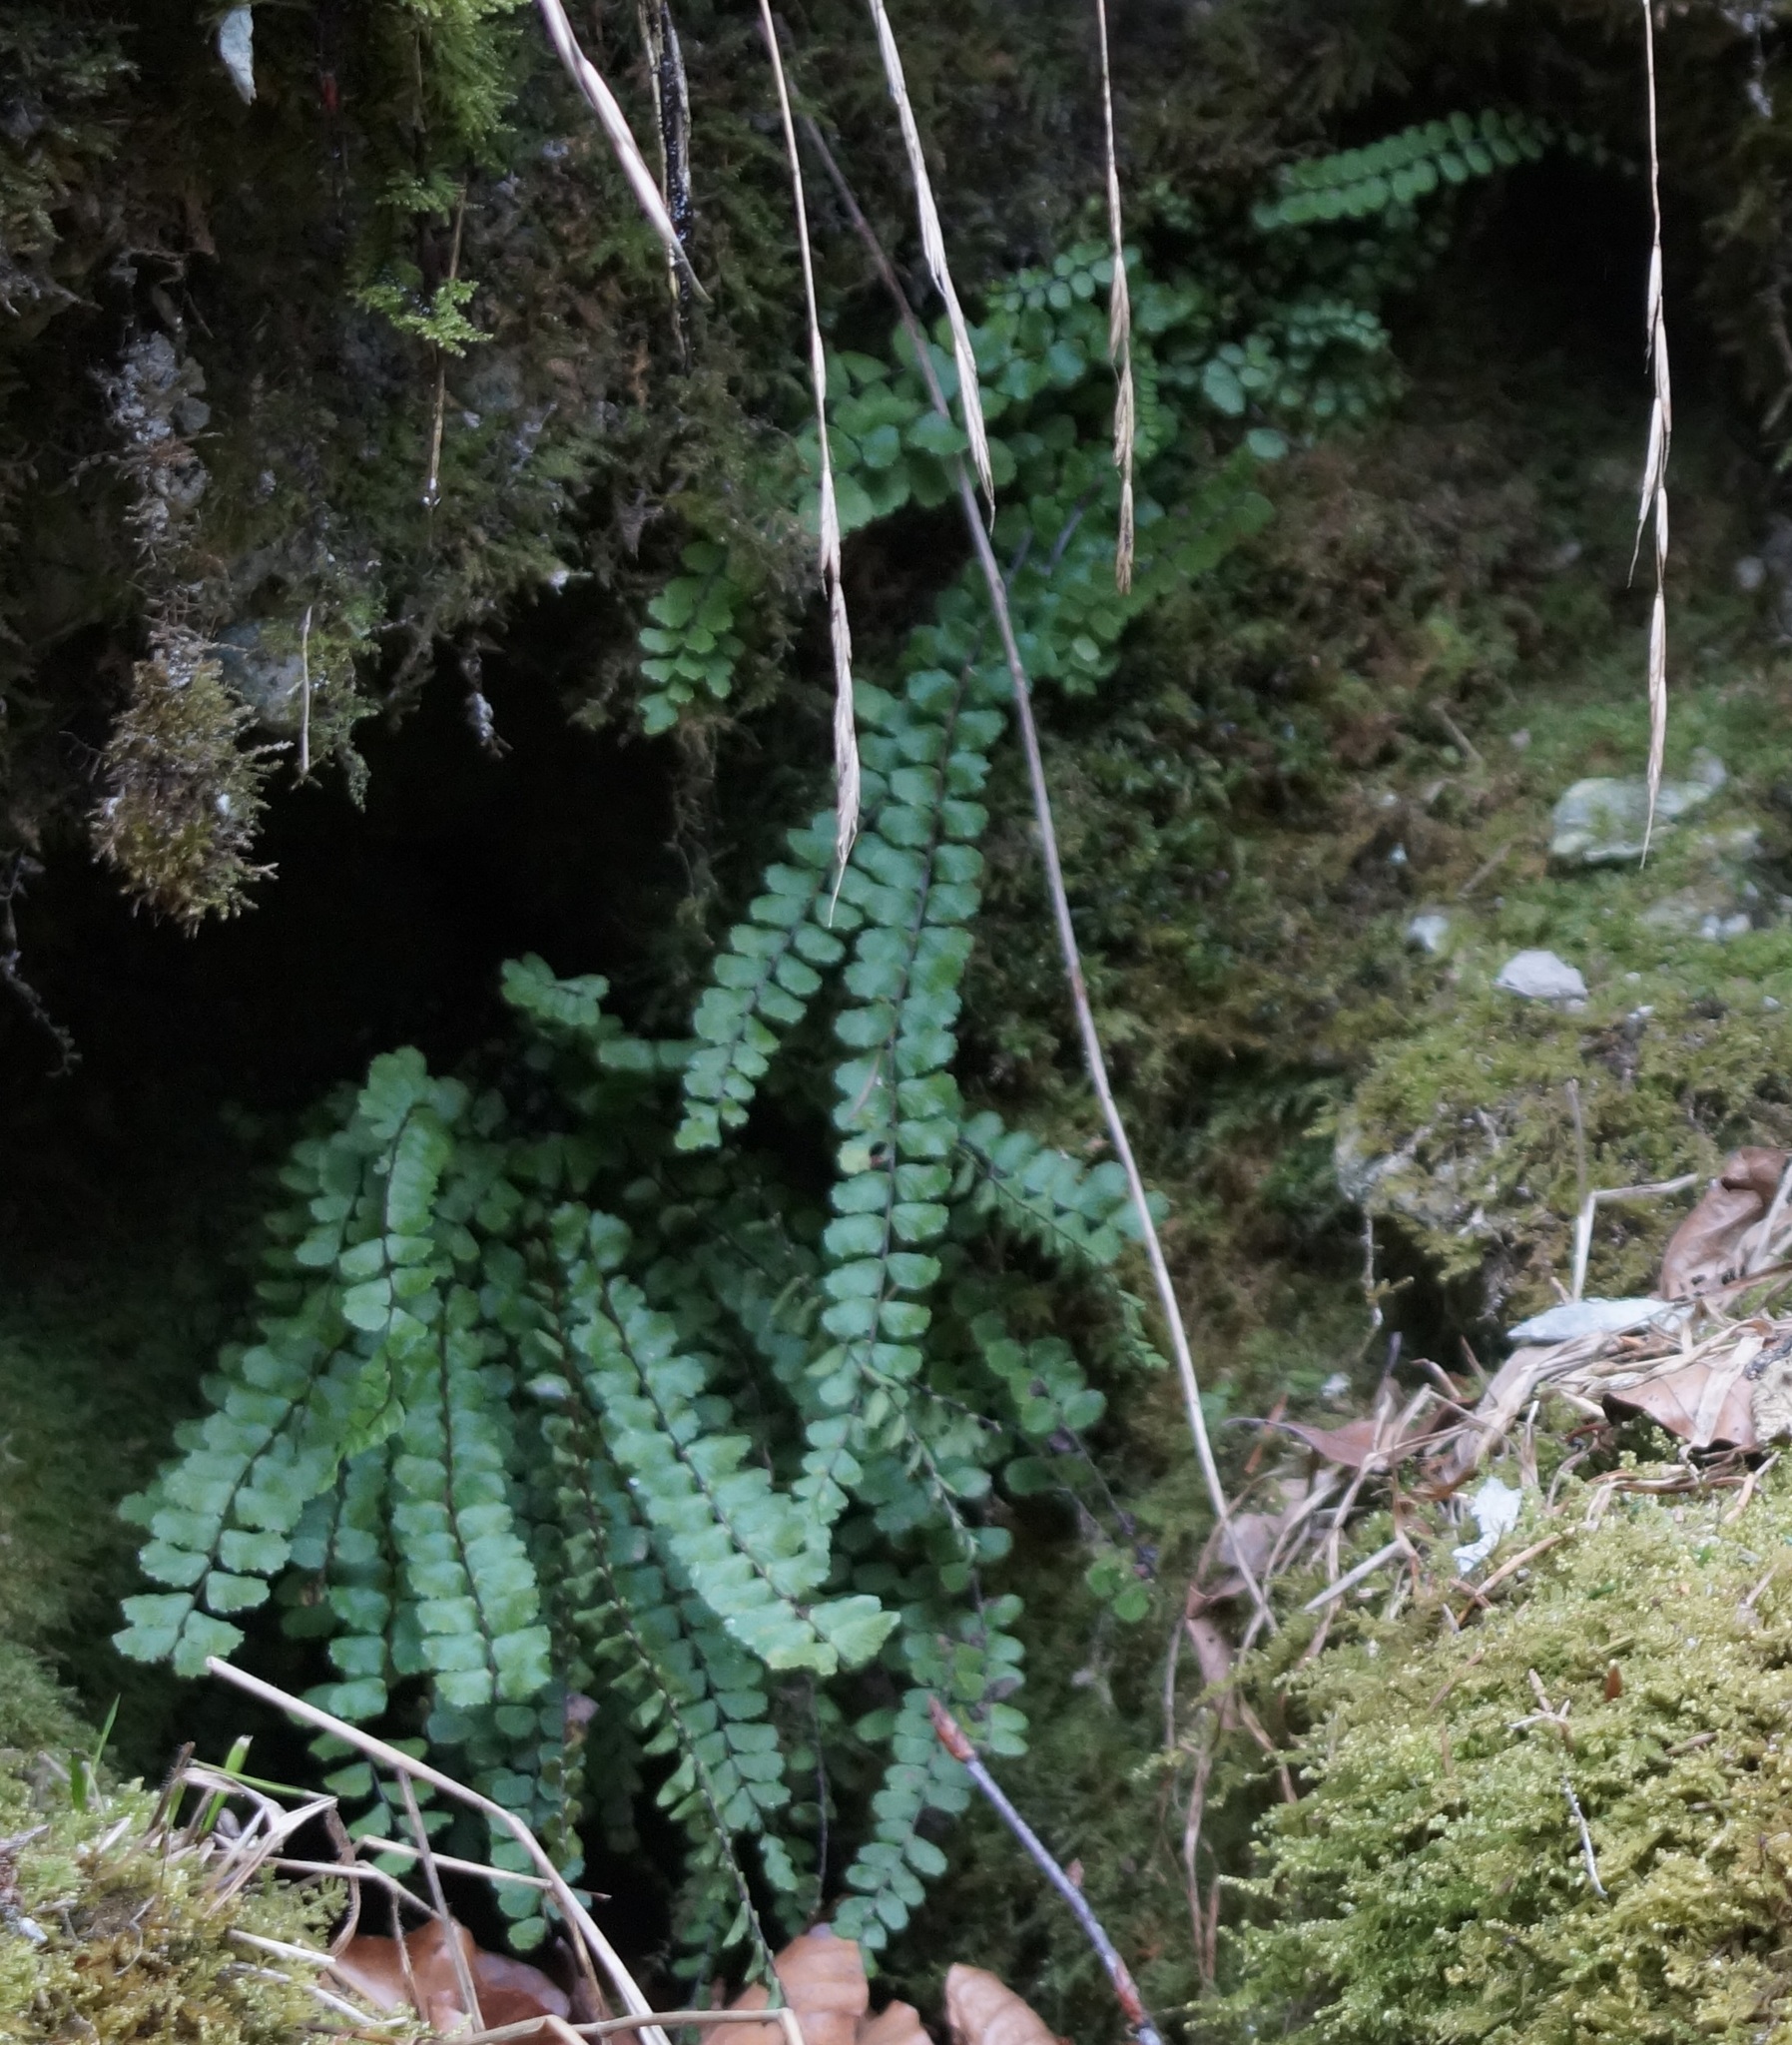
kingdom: Plantae
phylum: Tracheophyta
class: Polypodiopsida
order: Polypodiales
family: Aspleniaceae
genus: Asplenium
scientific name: Asplenium trichomanes
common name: Maidenhair spleenwort
